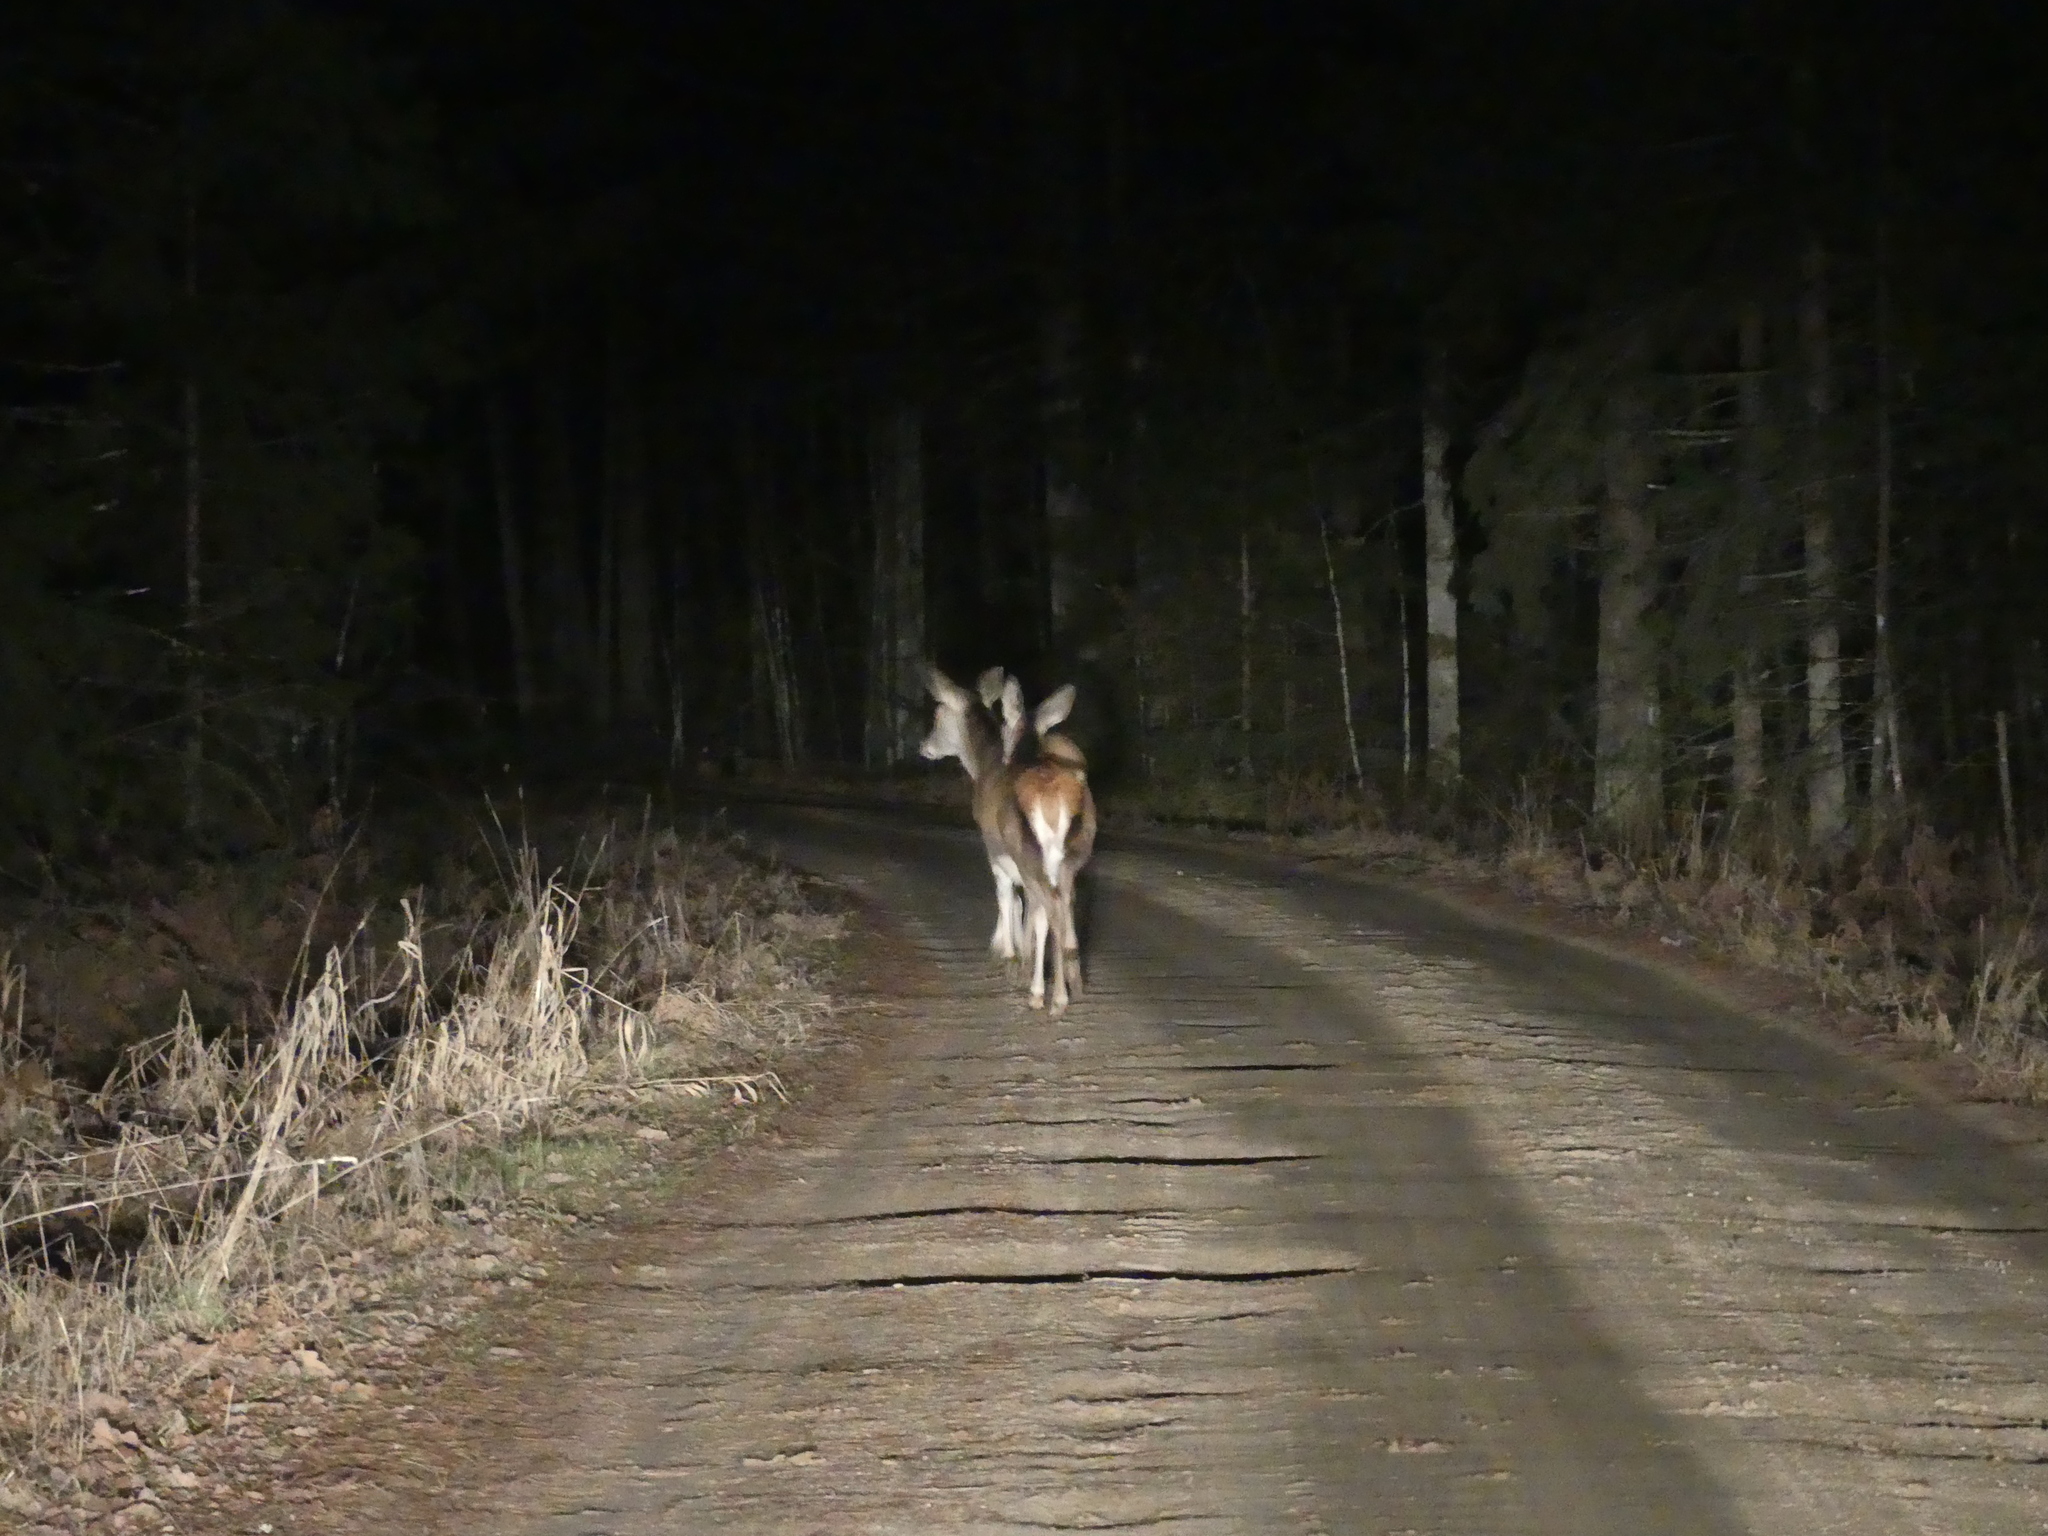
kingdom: Animalia
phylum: Chordata
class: Mammalia
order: Artiodactyla
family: Cervidae
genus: Cervus
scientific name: Cervus elaphus
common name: Red deer
